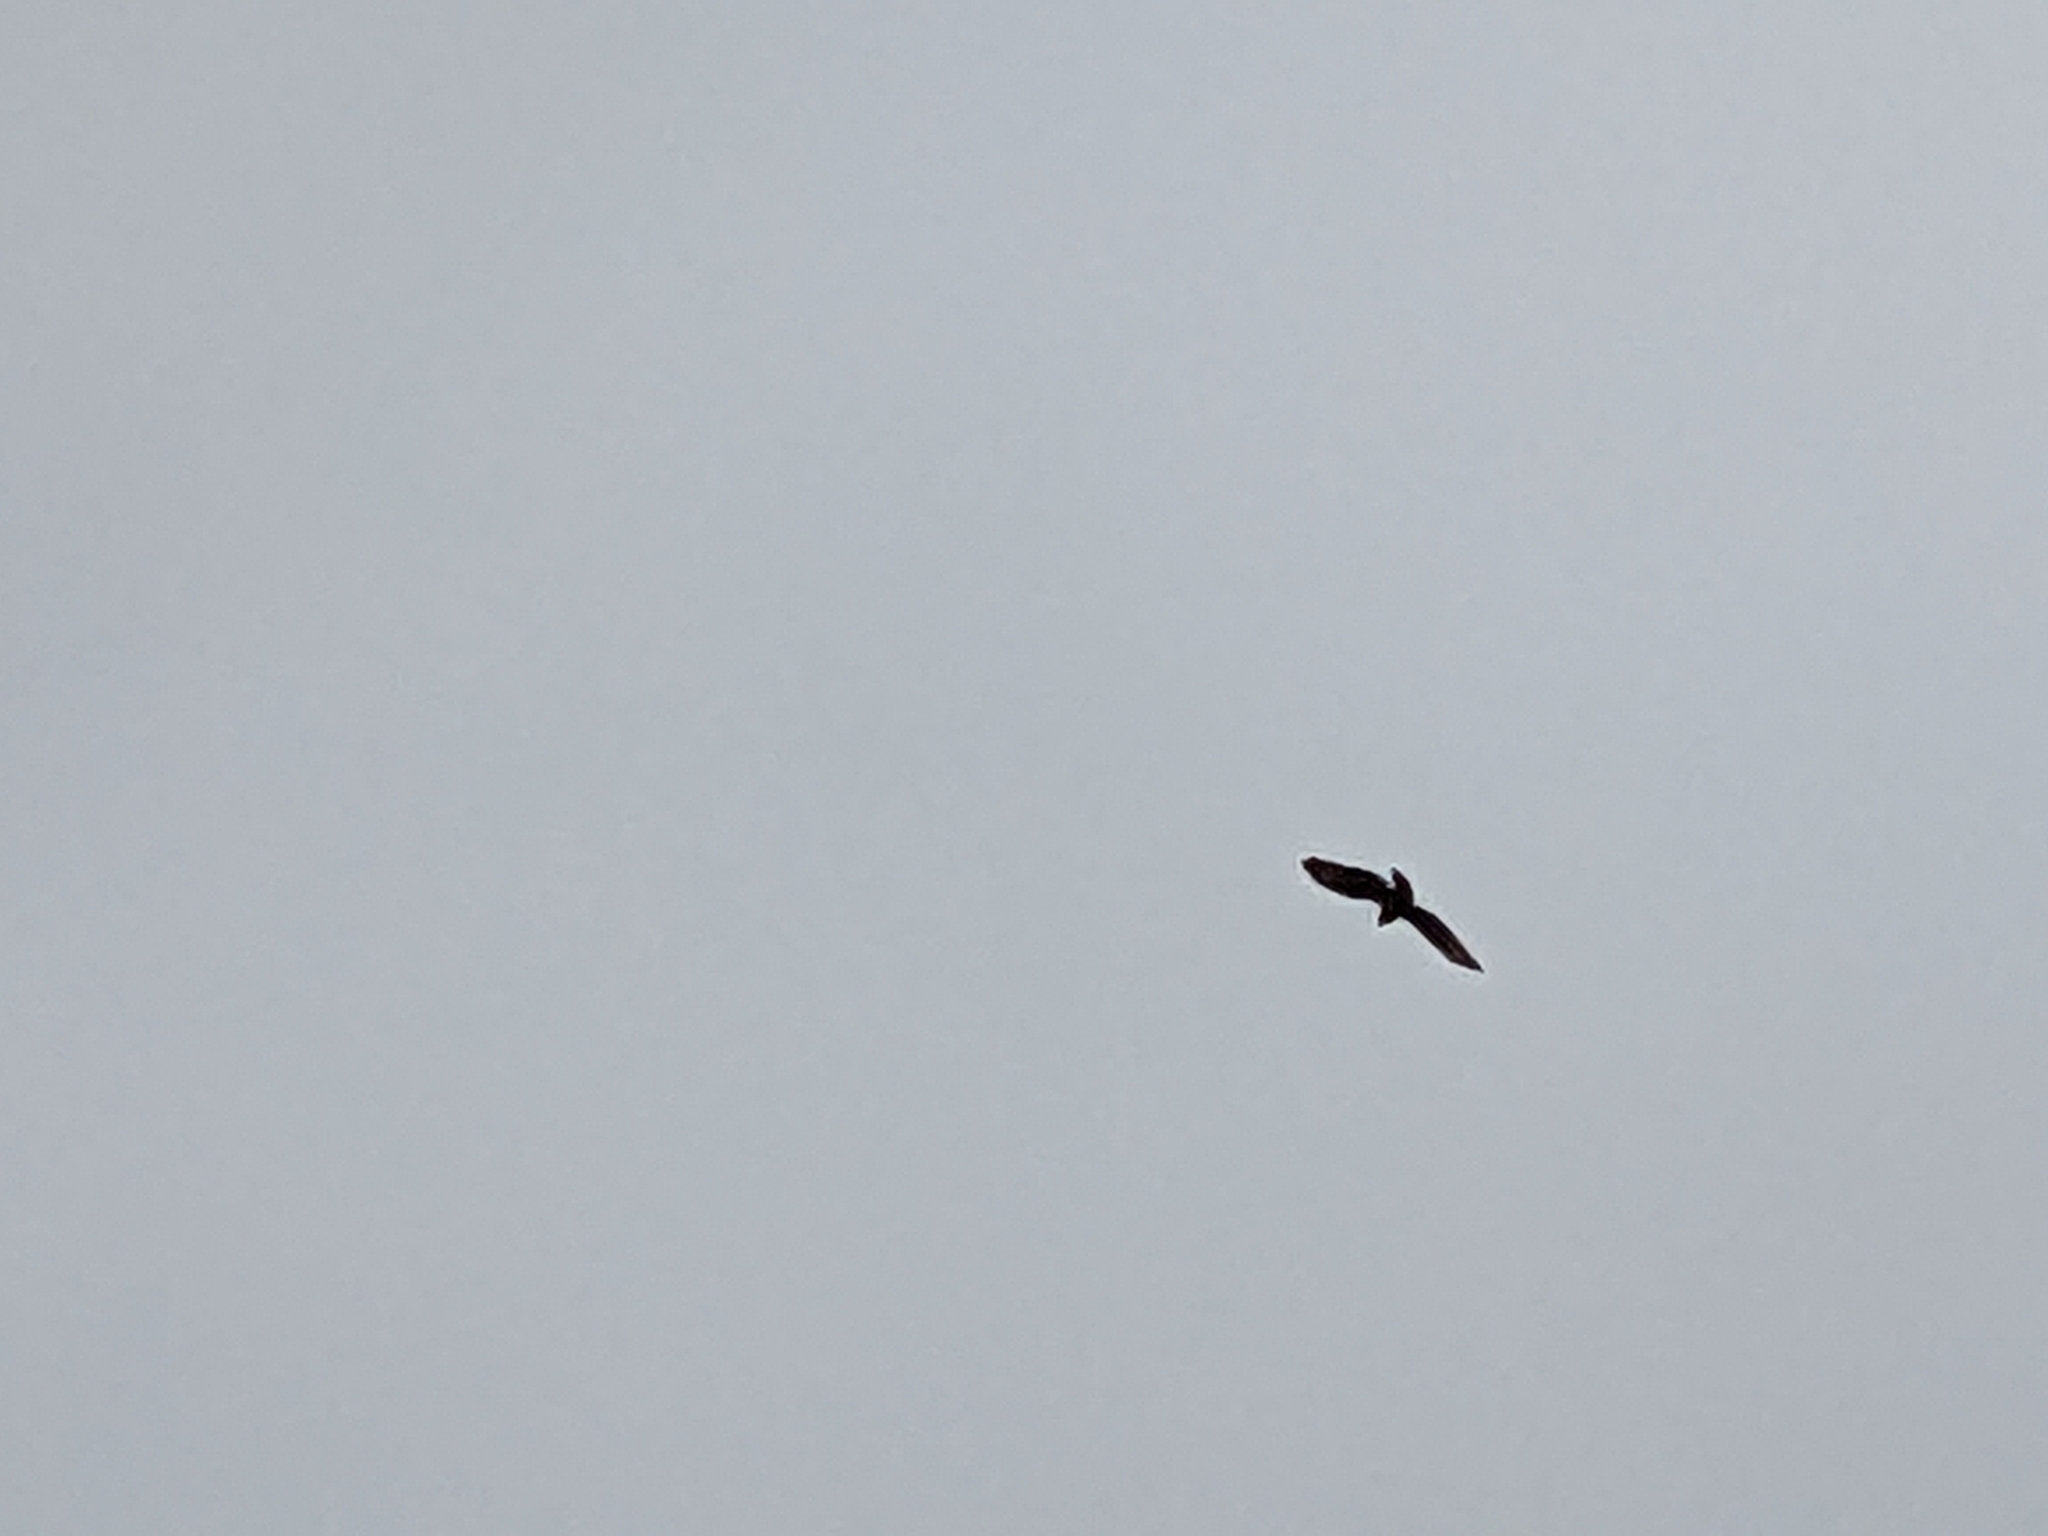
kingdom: Animalia
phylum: Chordata
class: Aves
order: Accipitriformes
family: Accipitridae
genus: Buteo
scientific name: Buteo buteo
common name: Common buzzard
